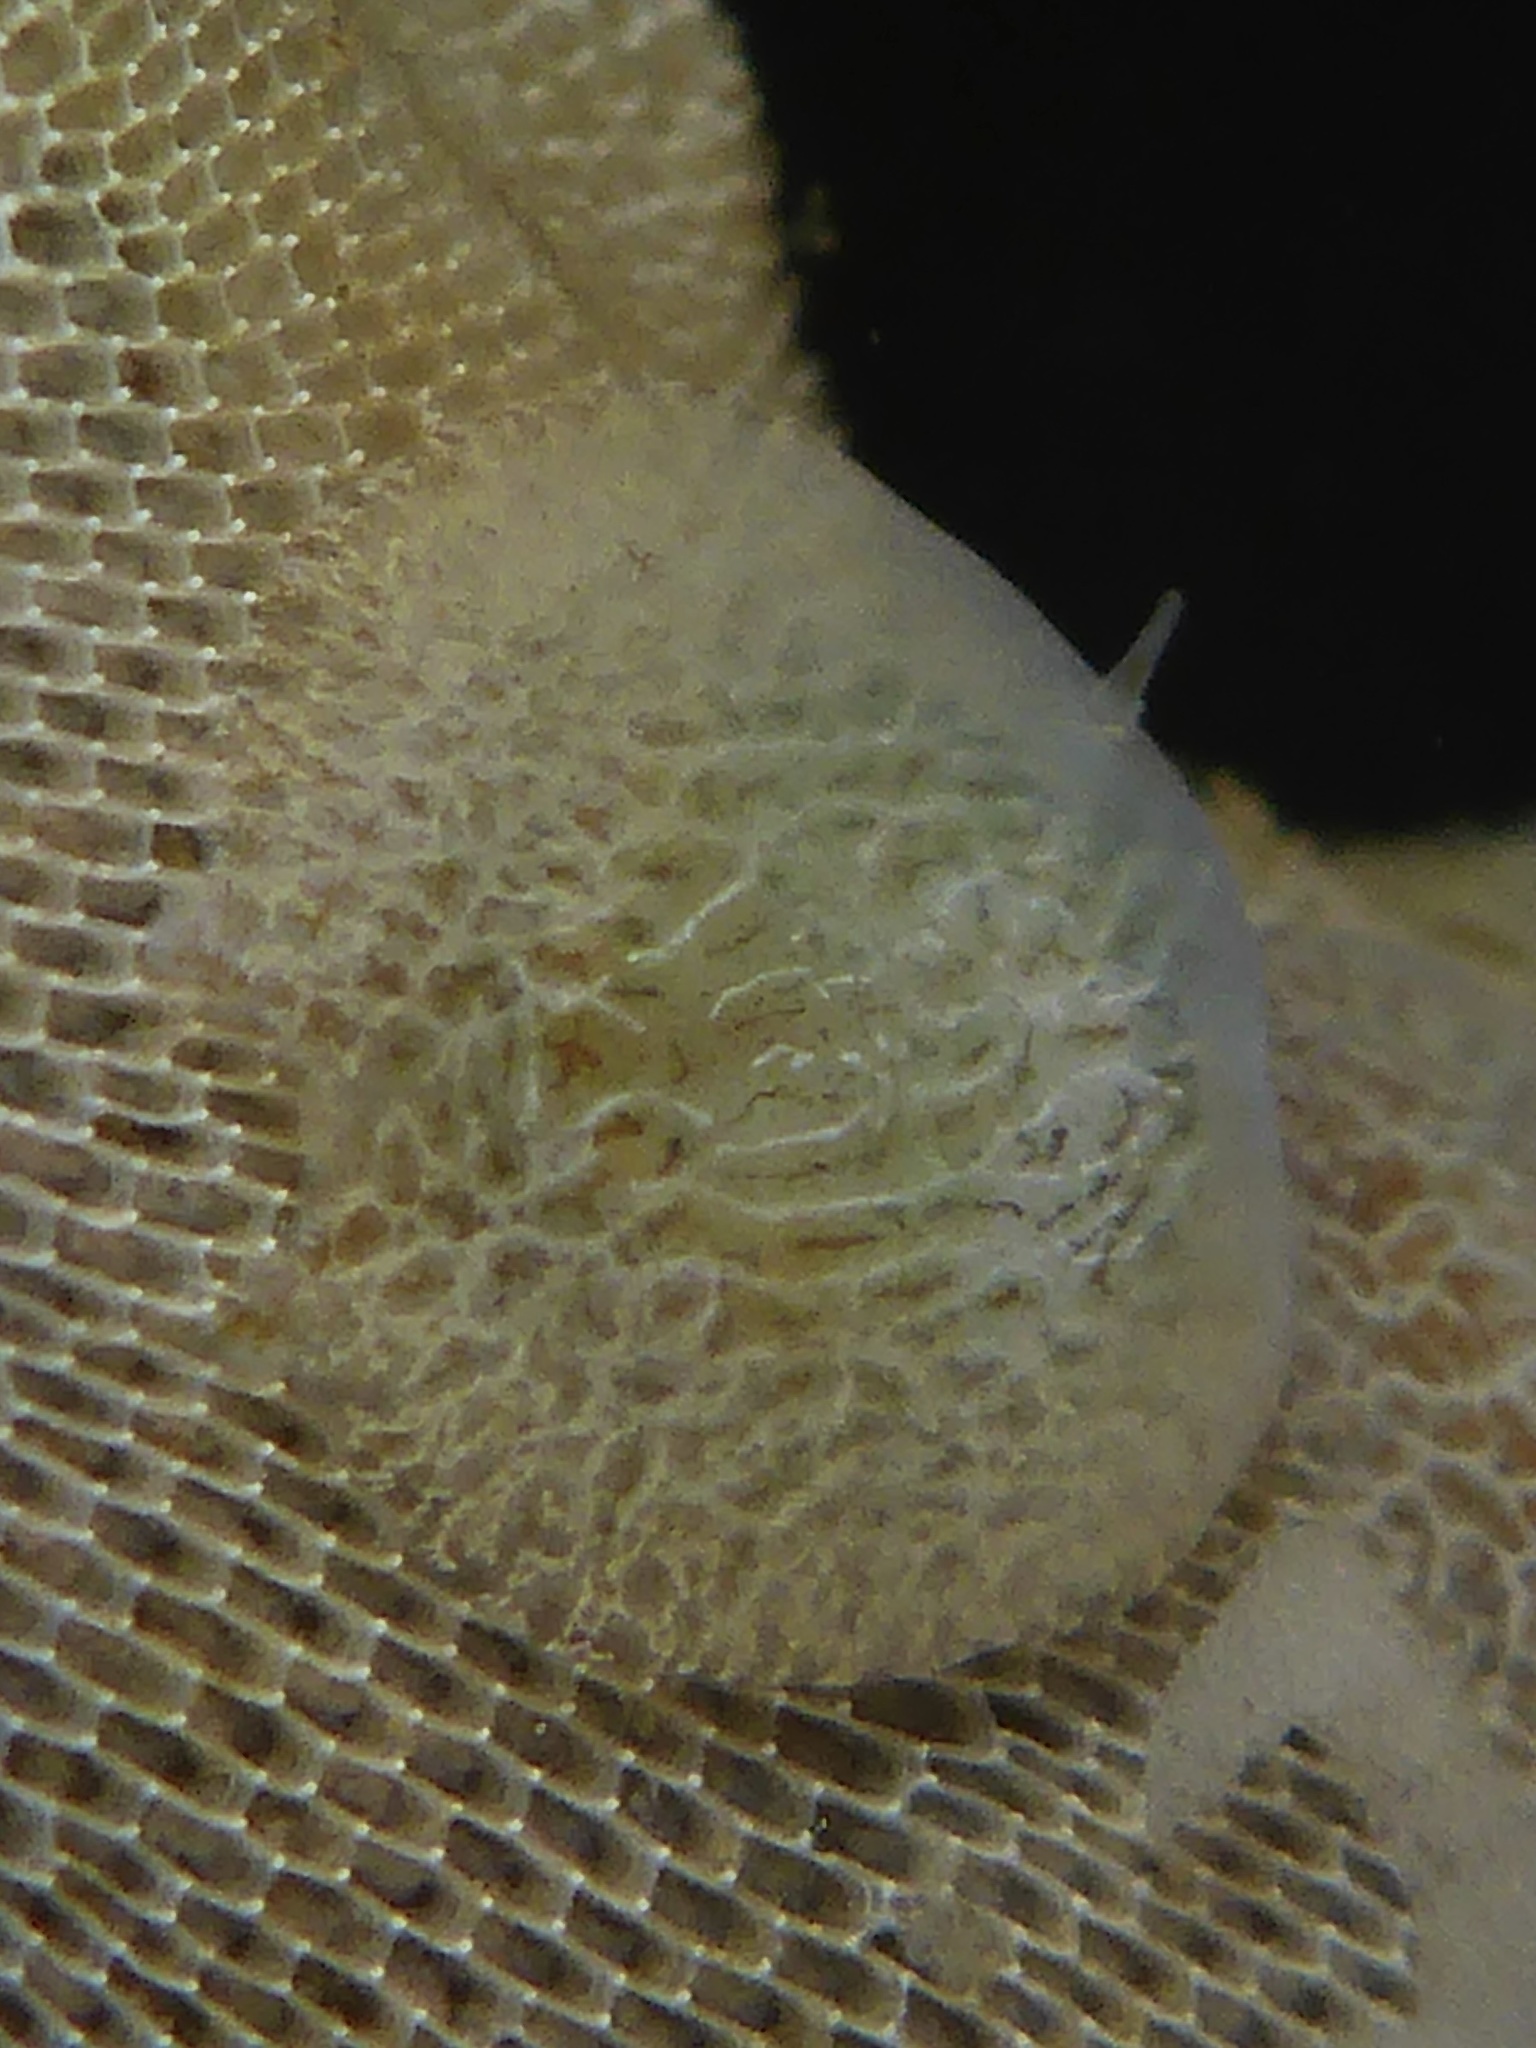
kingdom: Animalia
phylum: Mollusca
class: Gastropoda
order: Nudibranchia
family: Corambidae
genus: Corambe
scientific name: Corambe pacifica
